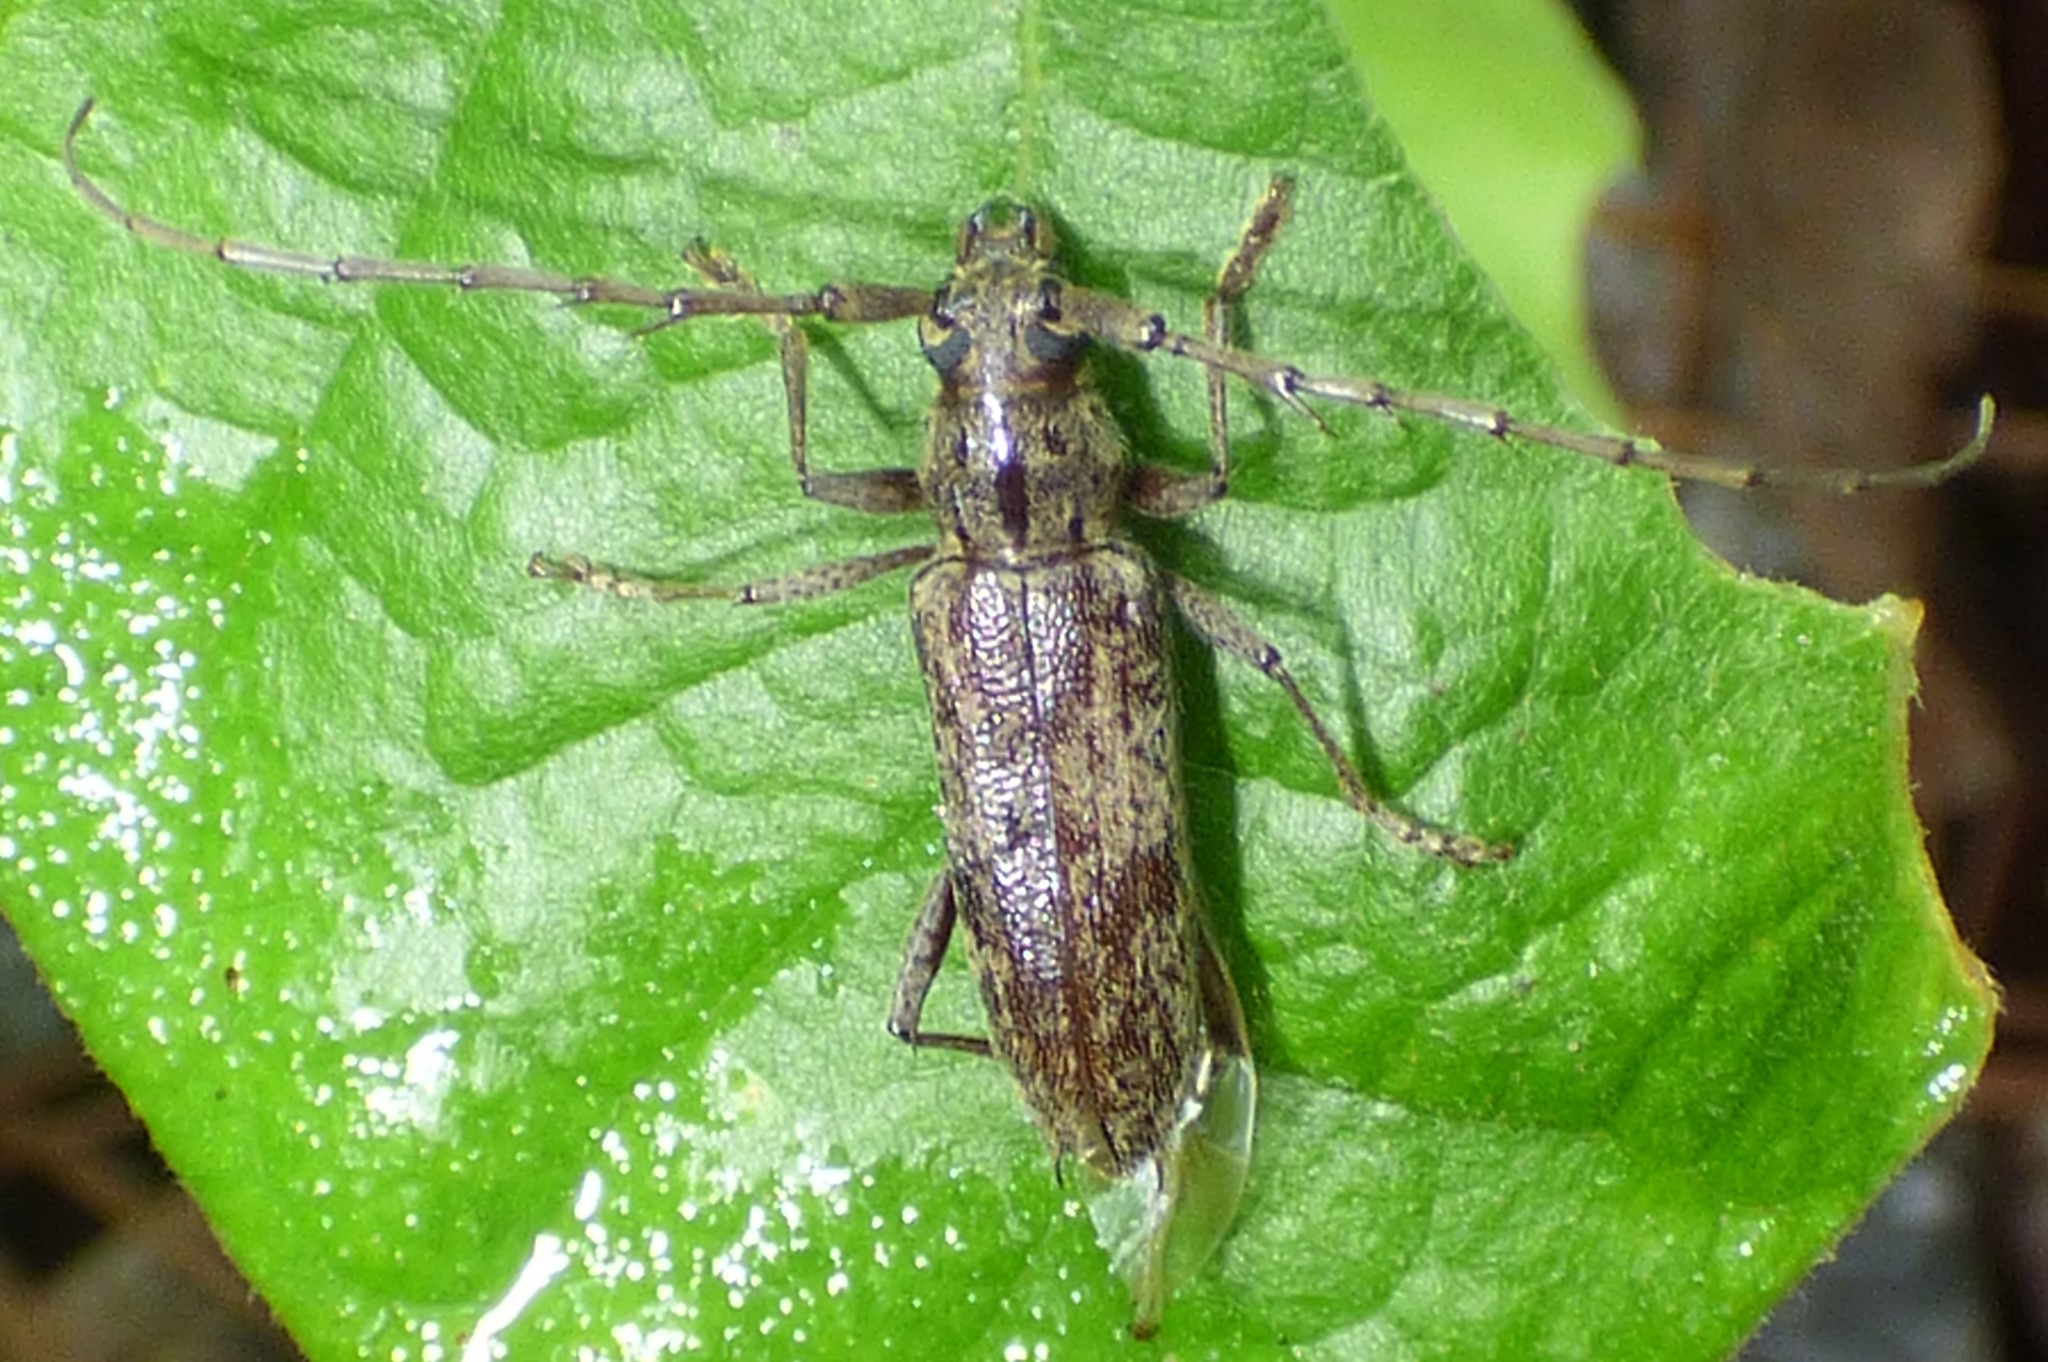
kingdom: Animalia
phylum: Arthropoda
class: Insecta
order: Coleoptera
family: Cerambycidae
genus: Elaphidion
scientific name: Elaphidion mucronatum
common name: Spined oak borer
